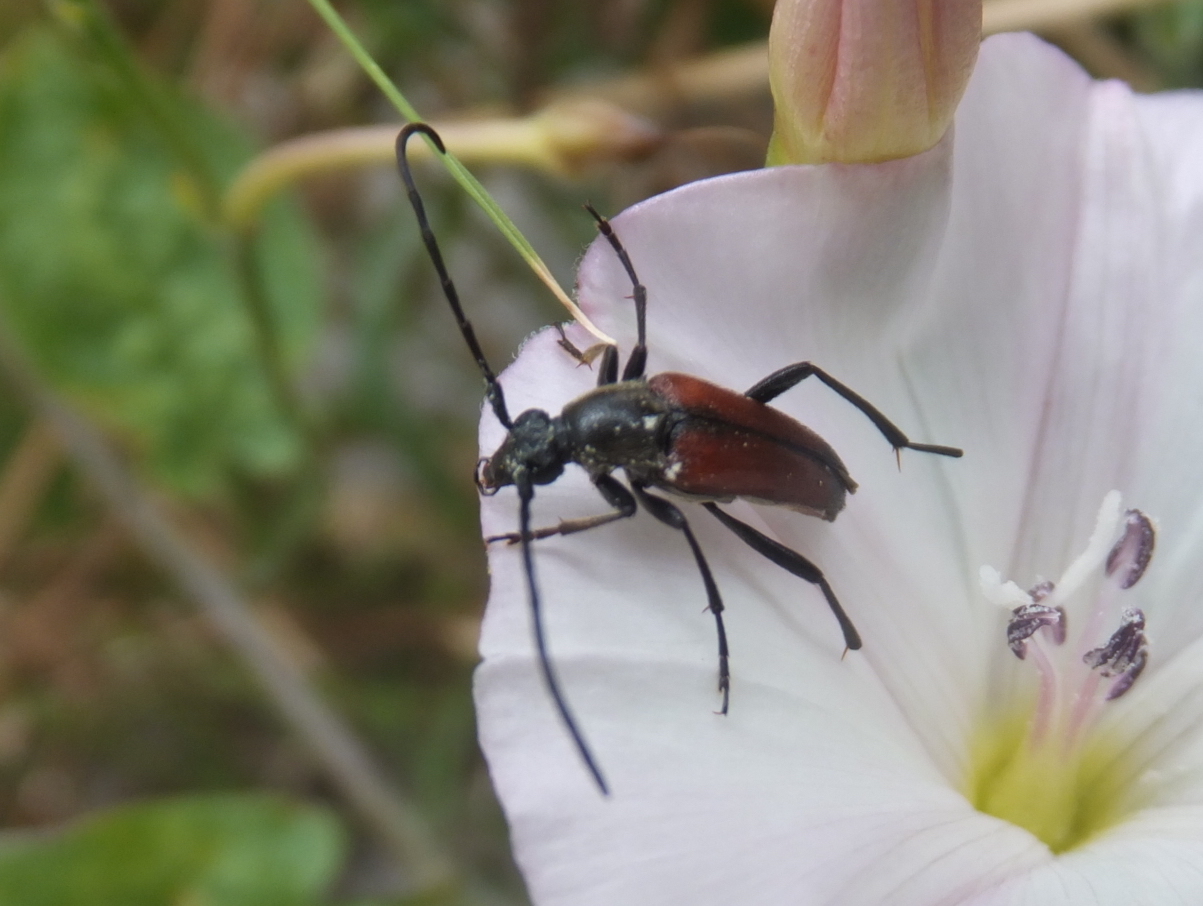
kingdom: Animalia
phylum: Arthropoda
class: Insecta
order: Coleoptera
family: Cerambycidae
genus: Stenurella
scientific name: Stenurella bifasciata
